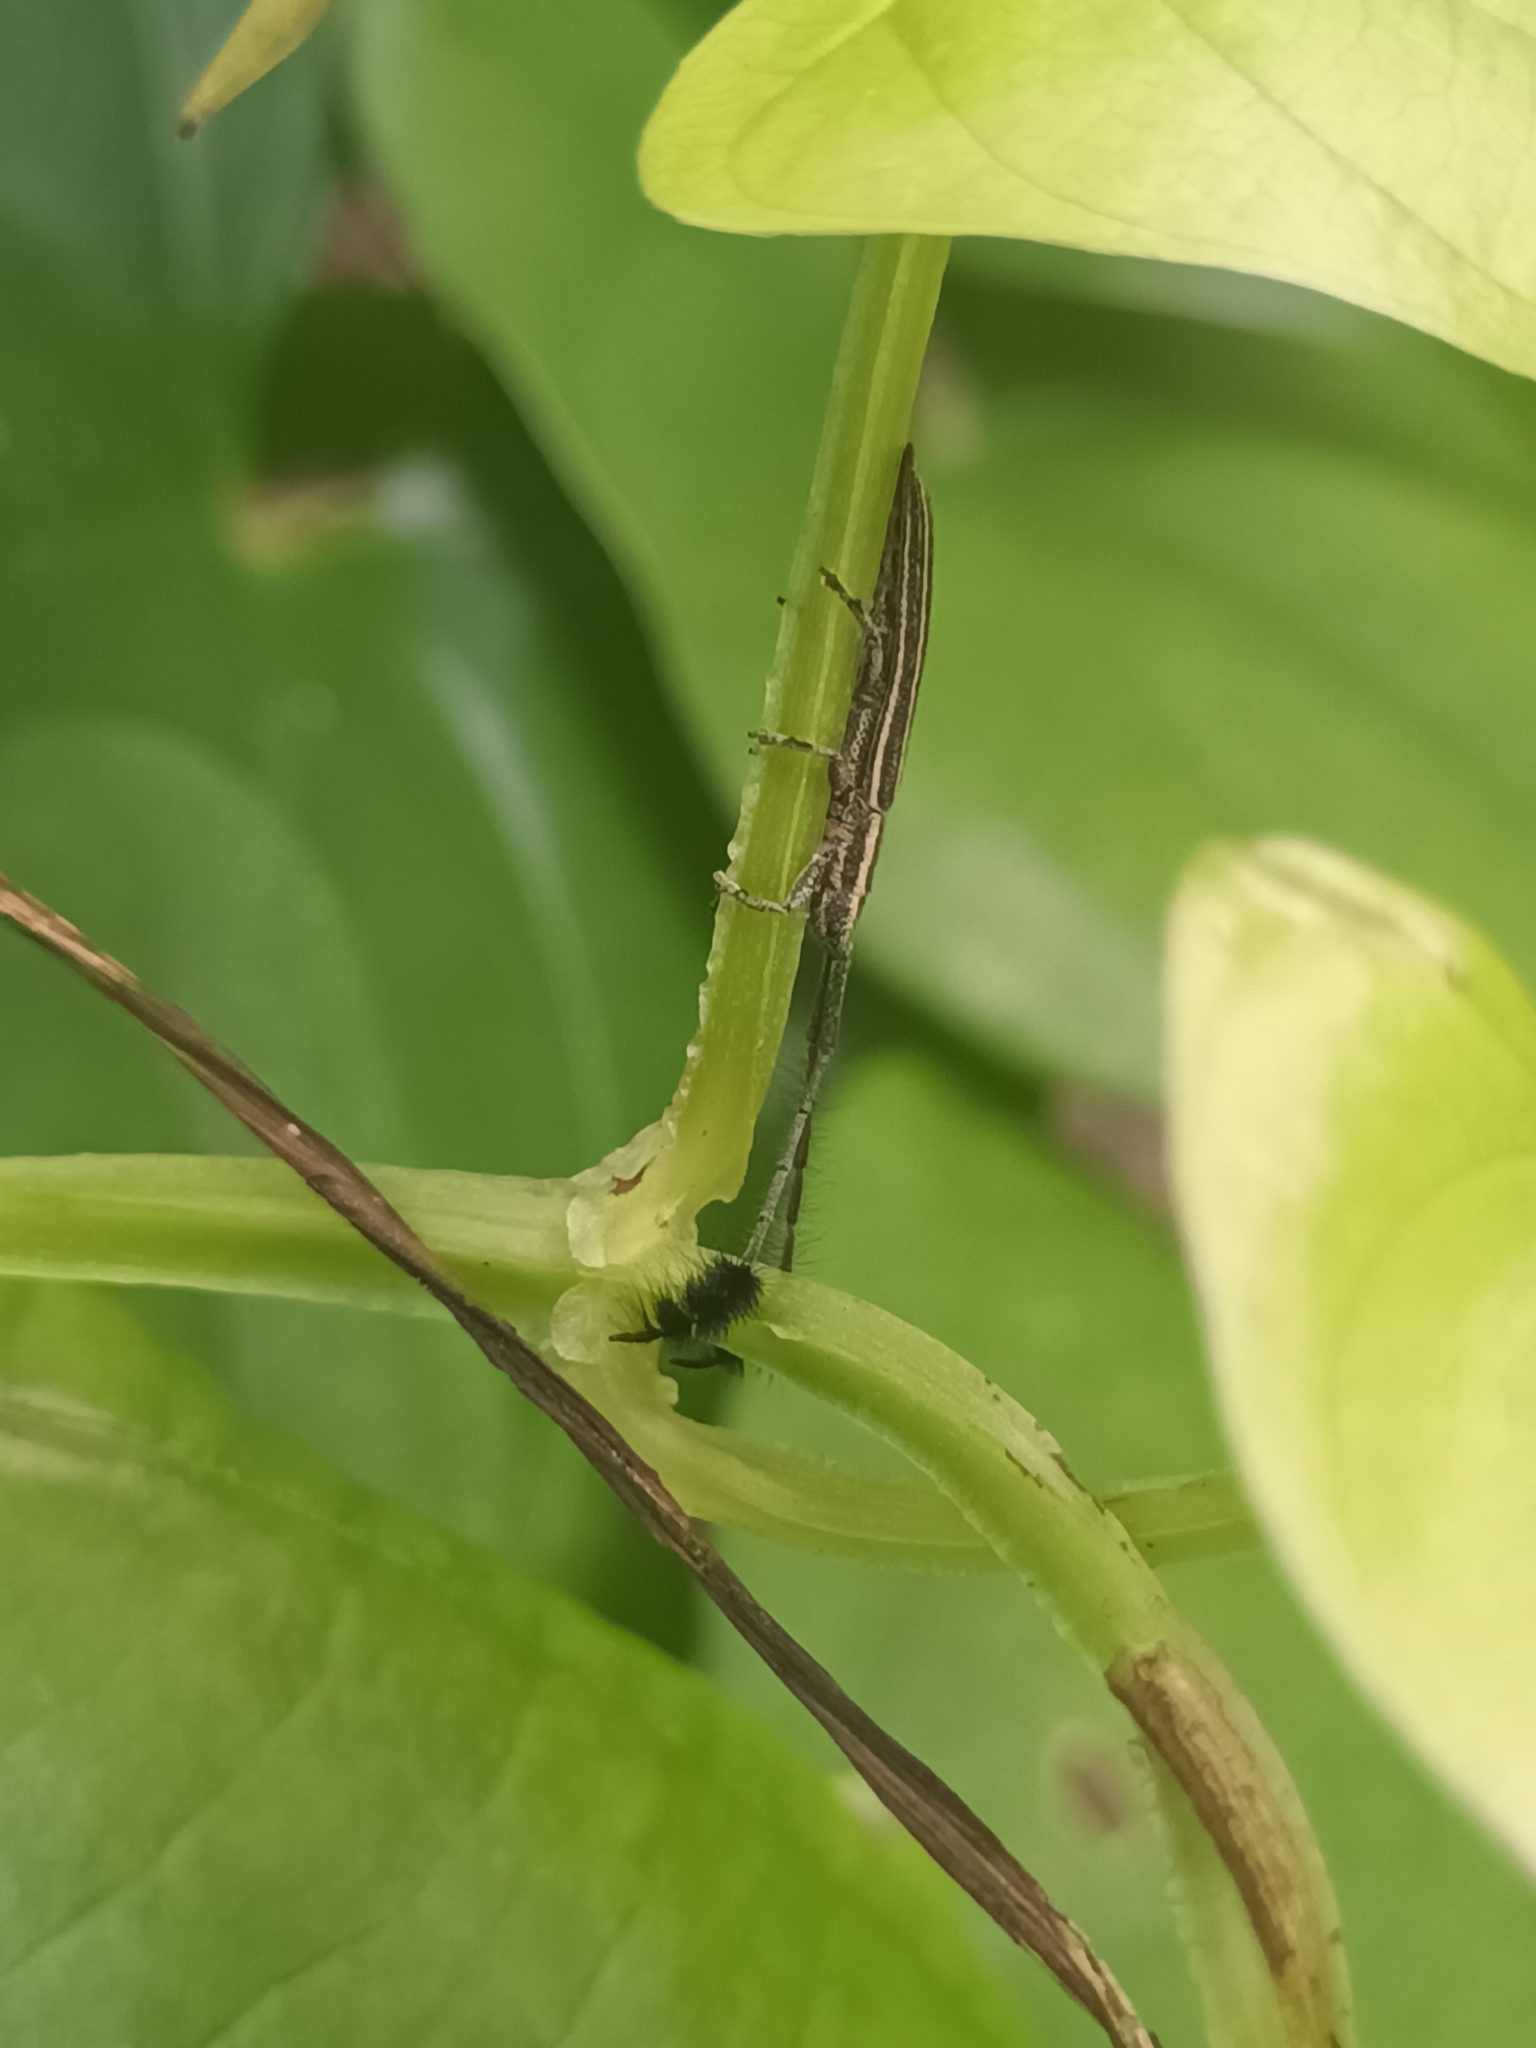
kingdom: Animalia
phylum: Arthropoda
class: Insecta
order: Coleoptera
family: Cerambycidae
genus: Eucomatocera
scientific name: Eucomatocera vittata
